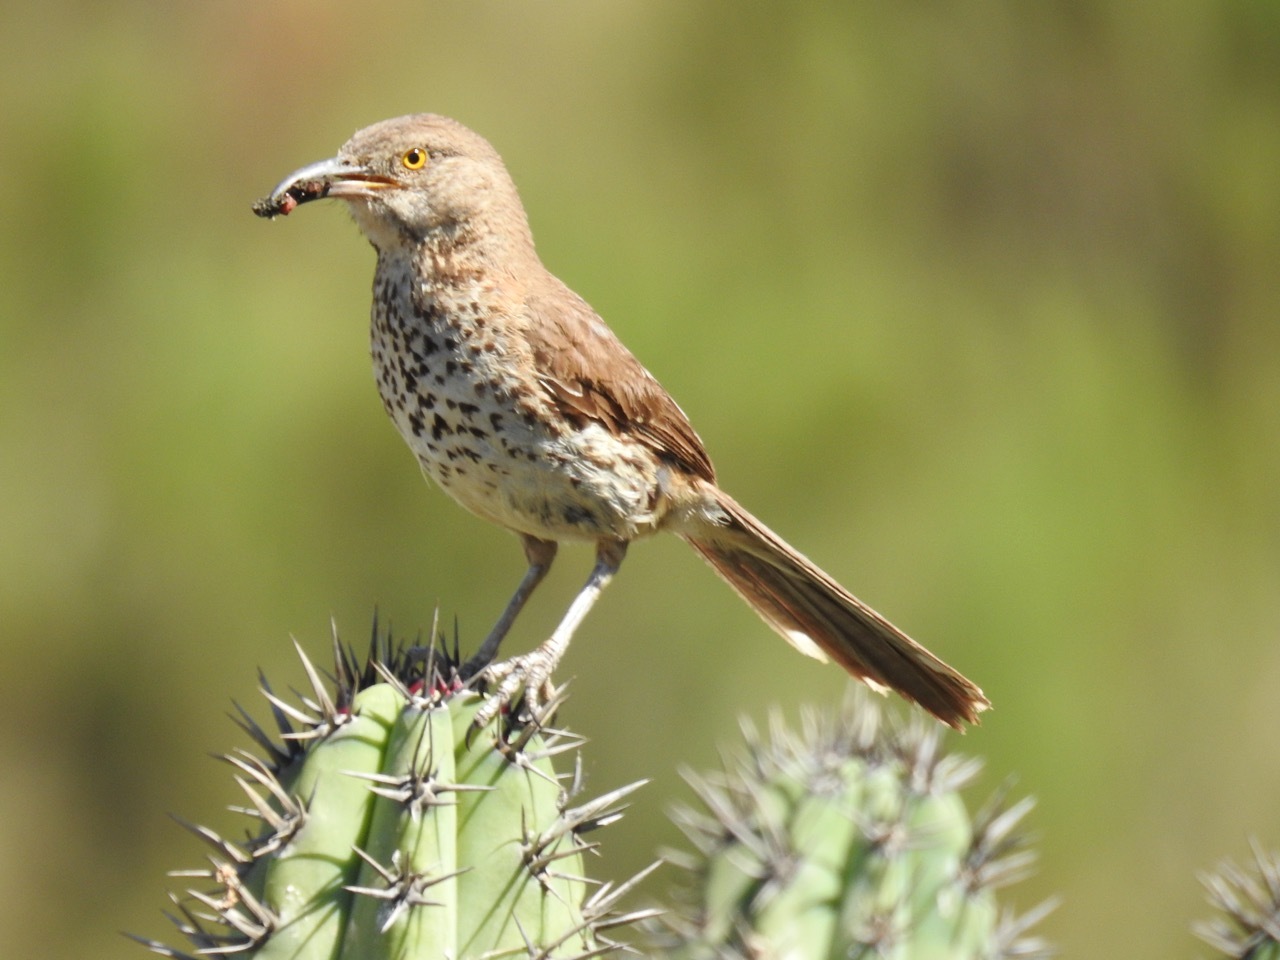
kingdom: Animalia
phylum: Chordata
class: Aves
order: Passeriformes
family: Mimidae
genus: Toxostoma
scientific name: Toxostoma cinereum
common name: Gray thrasher
